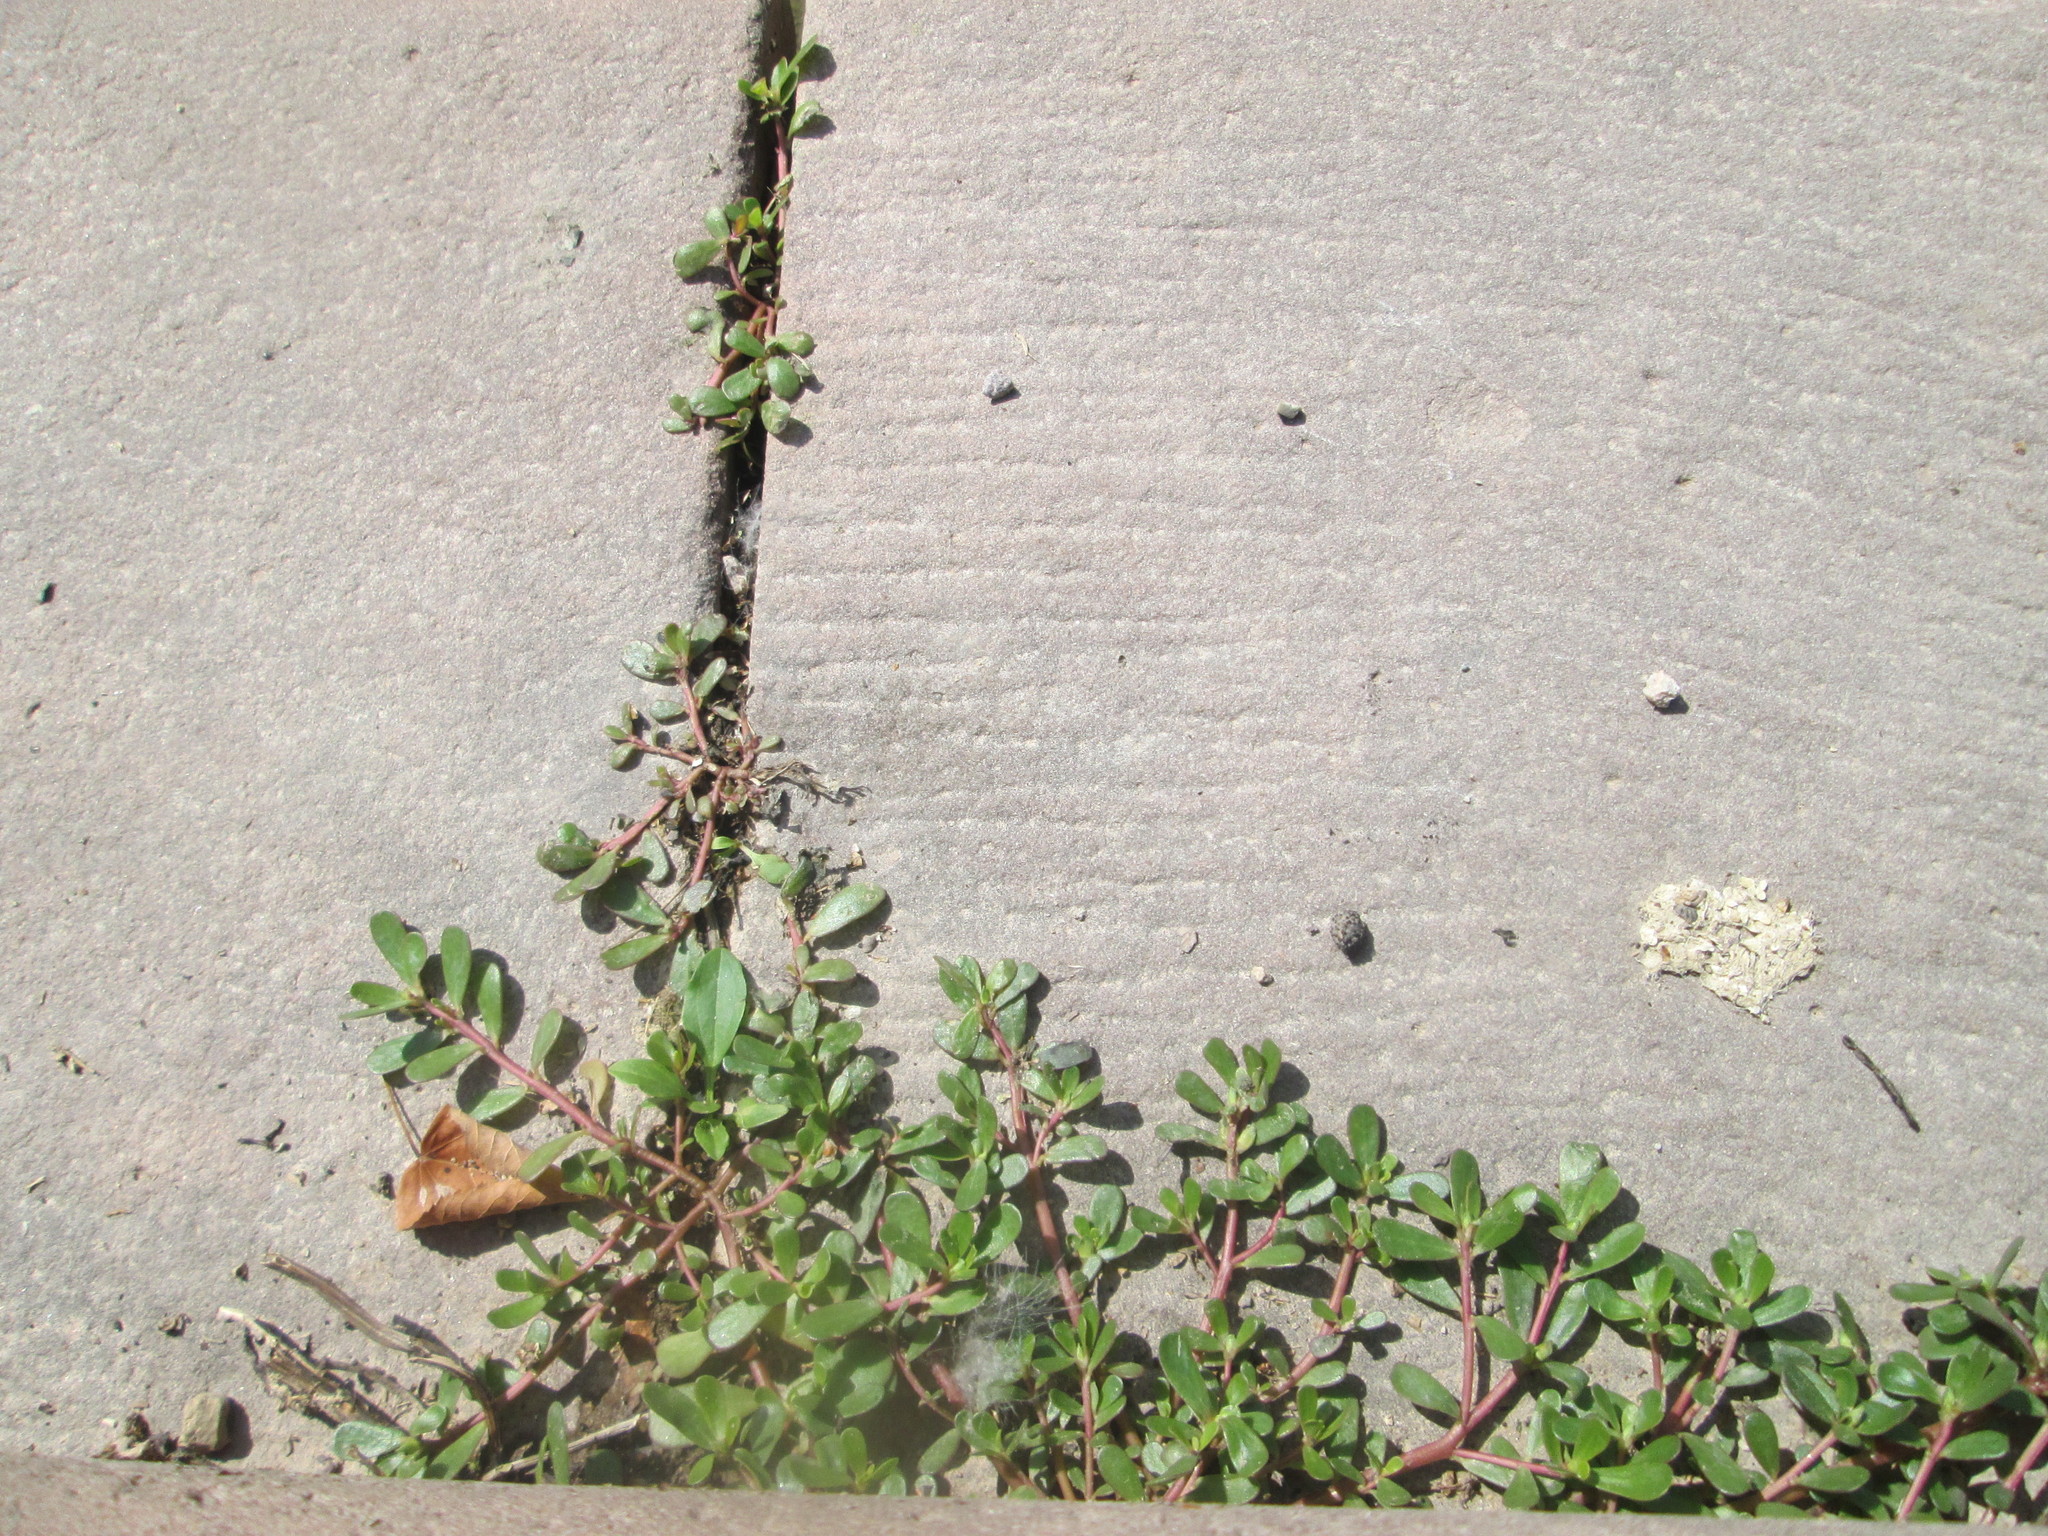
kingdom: Plantae
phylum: Tracheophyta
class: Magnoliopsida
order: Caryophyllales
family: Portulacaceae
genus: Portulaca
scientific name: Portulaca oleracea
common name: Common purslane
